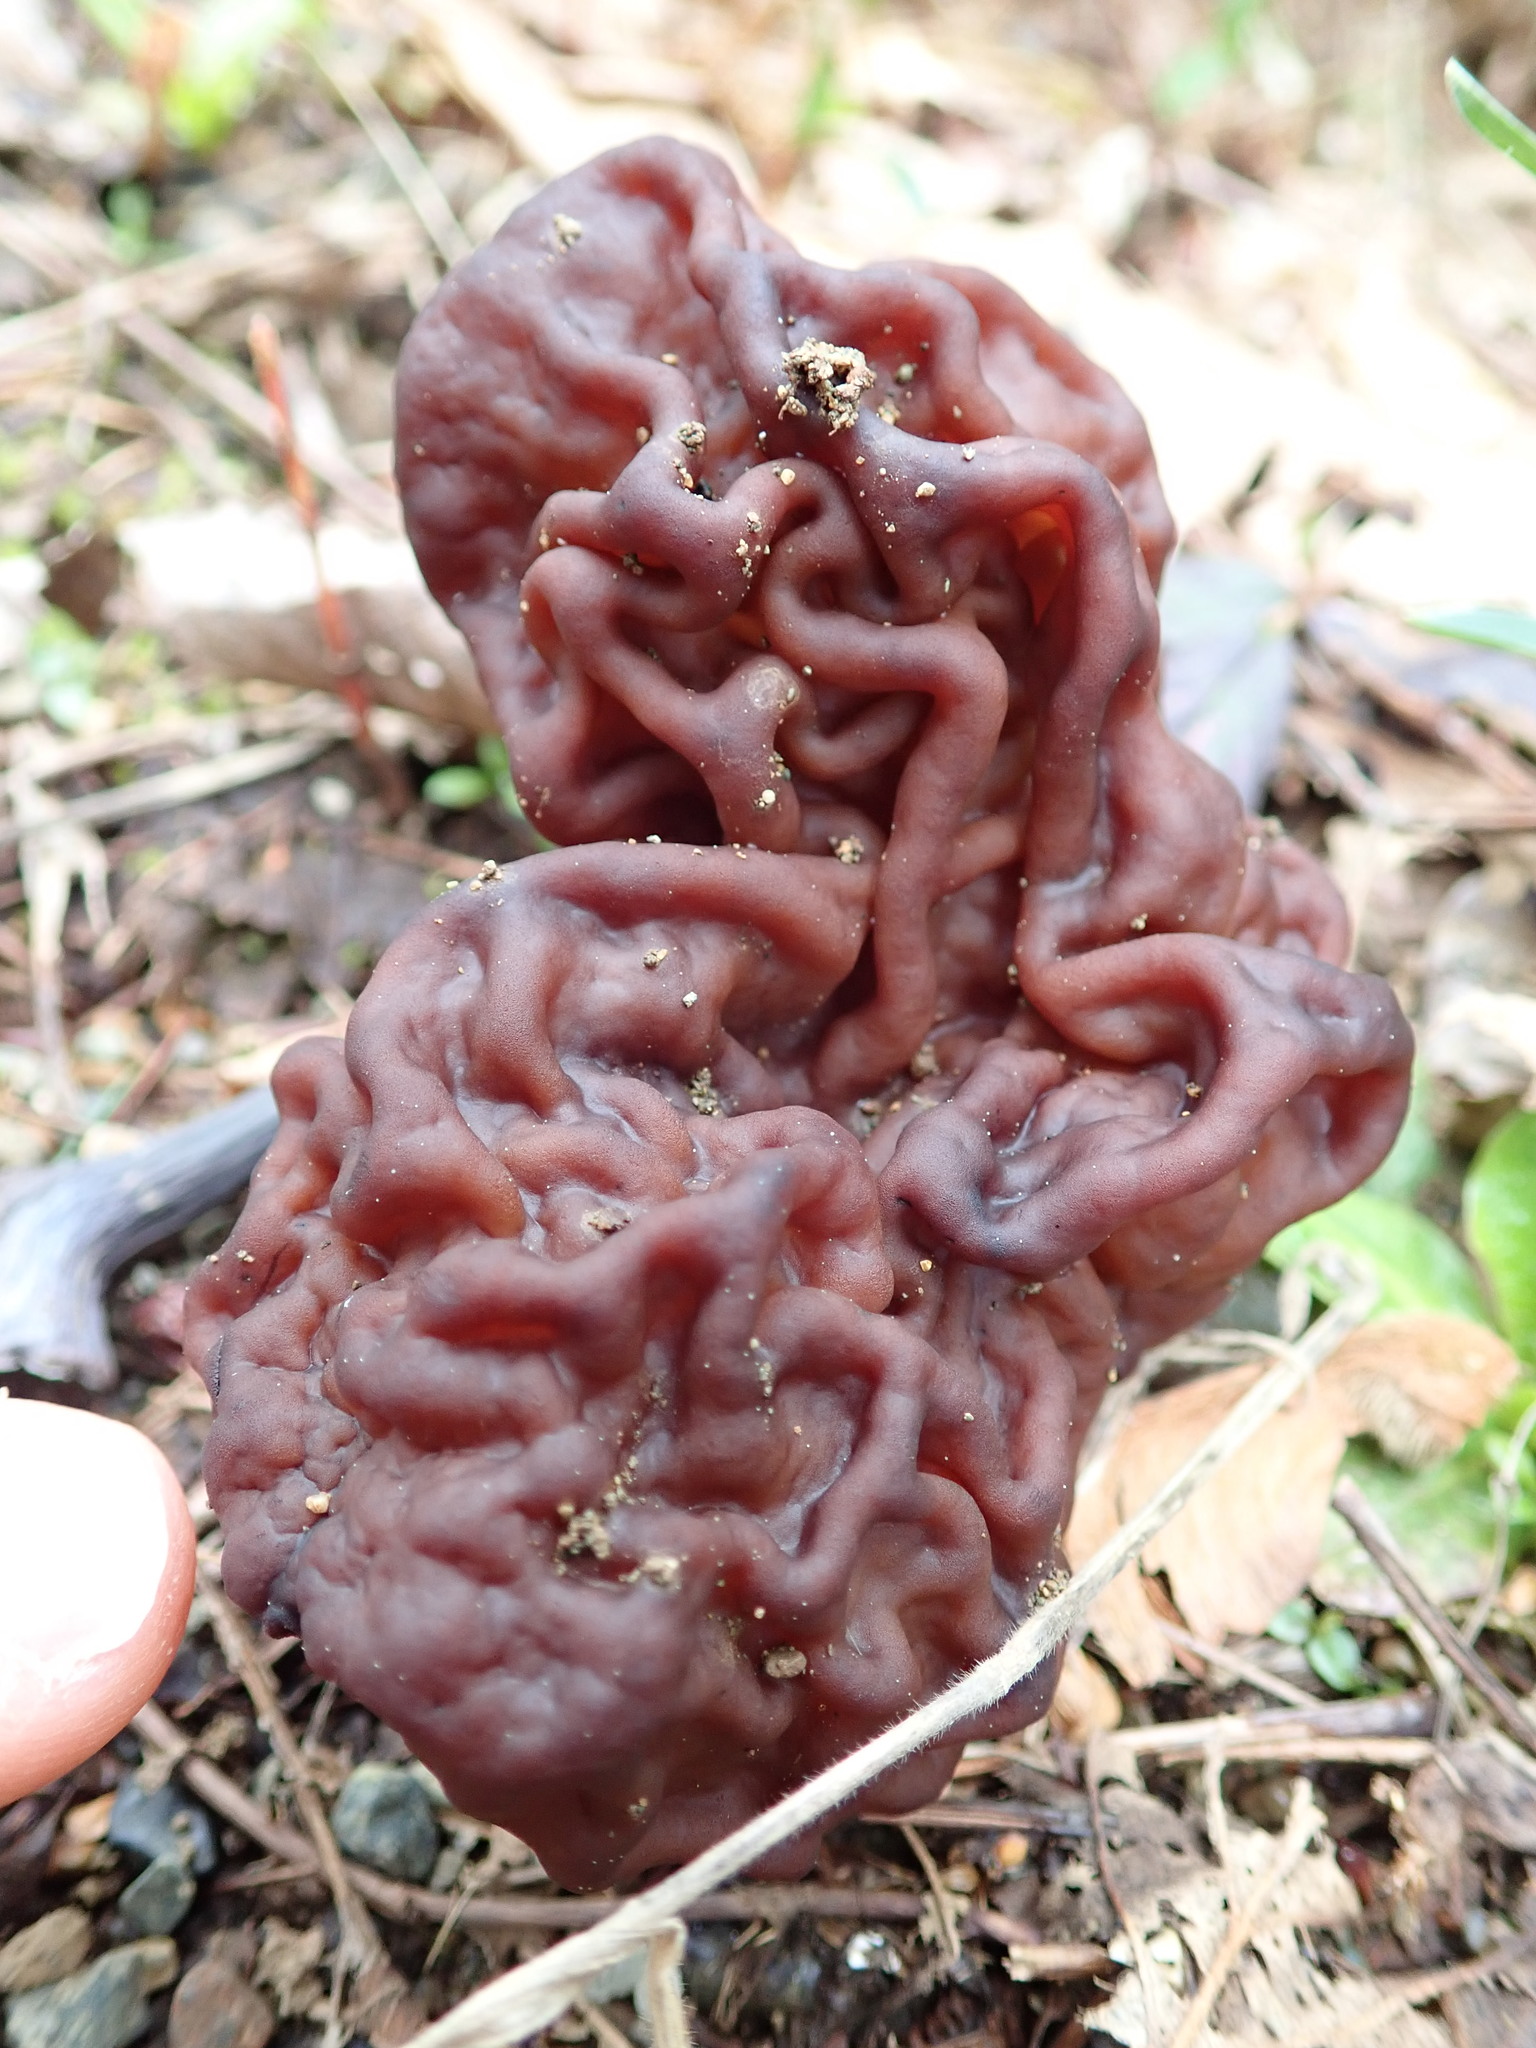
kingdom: Fungi
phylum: Ascomycota
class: Pezizomycetes
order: Pezizales
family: Discinaceae
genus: Gyromitra
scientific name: Gyromitra esculenta
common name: False morel
